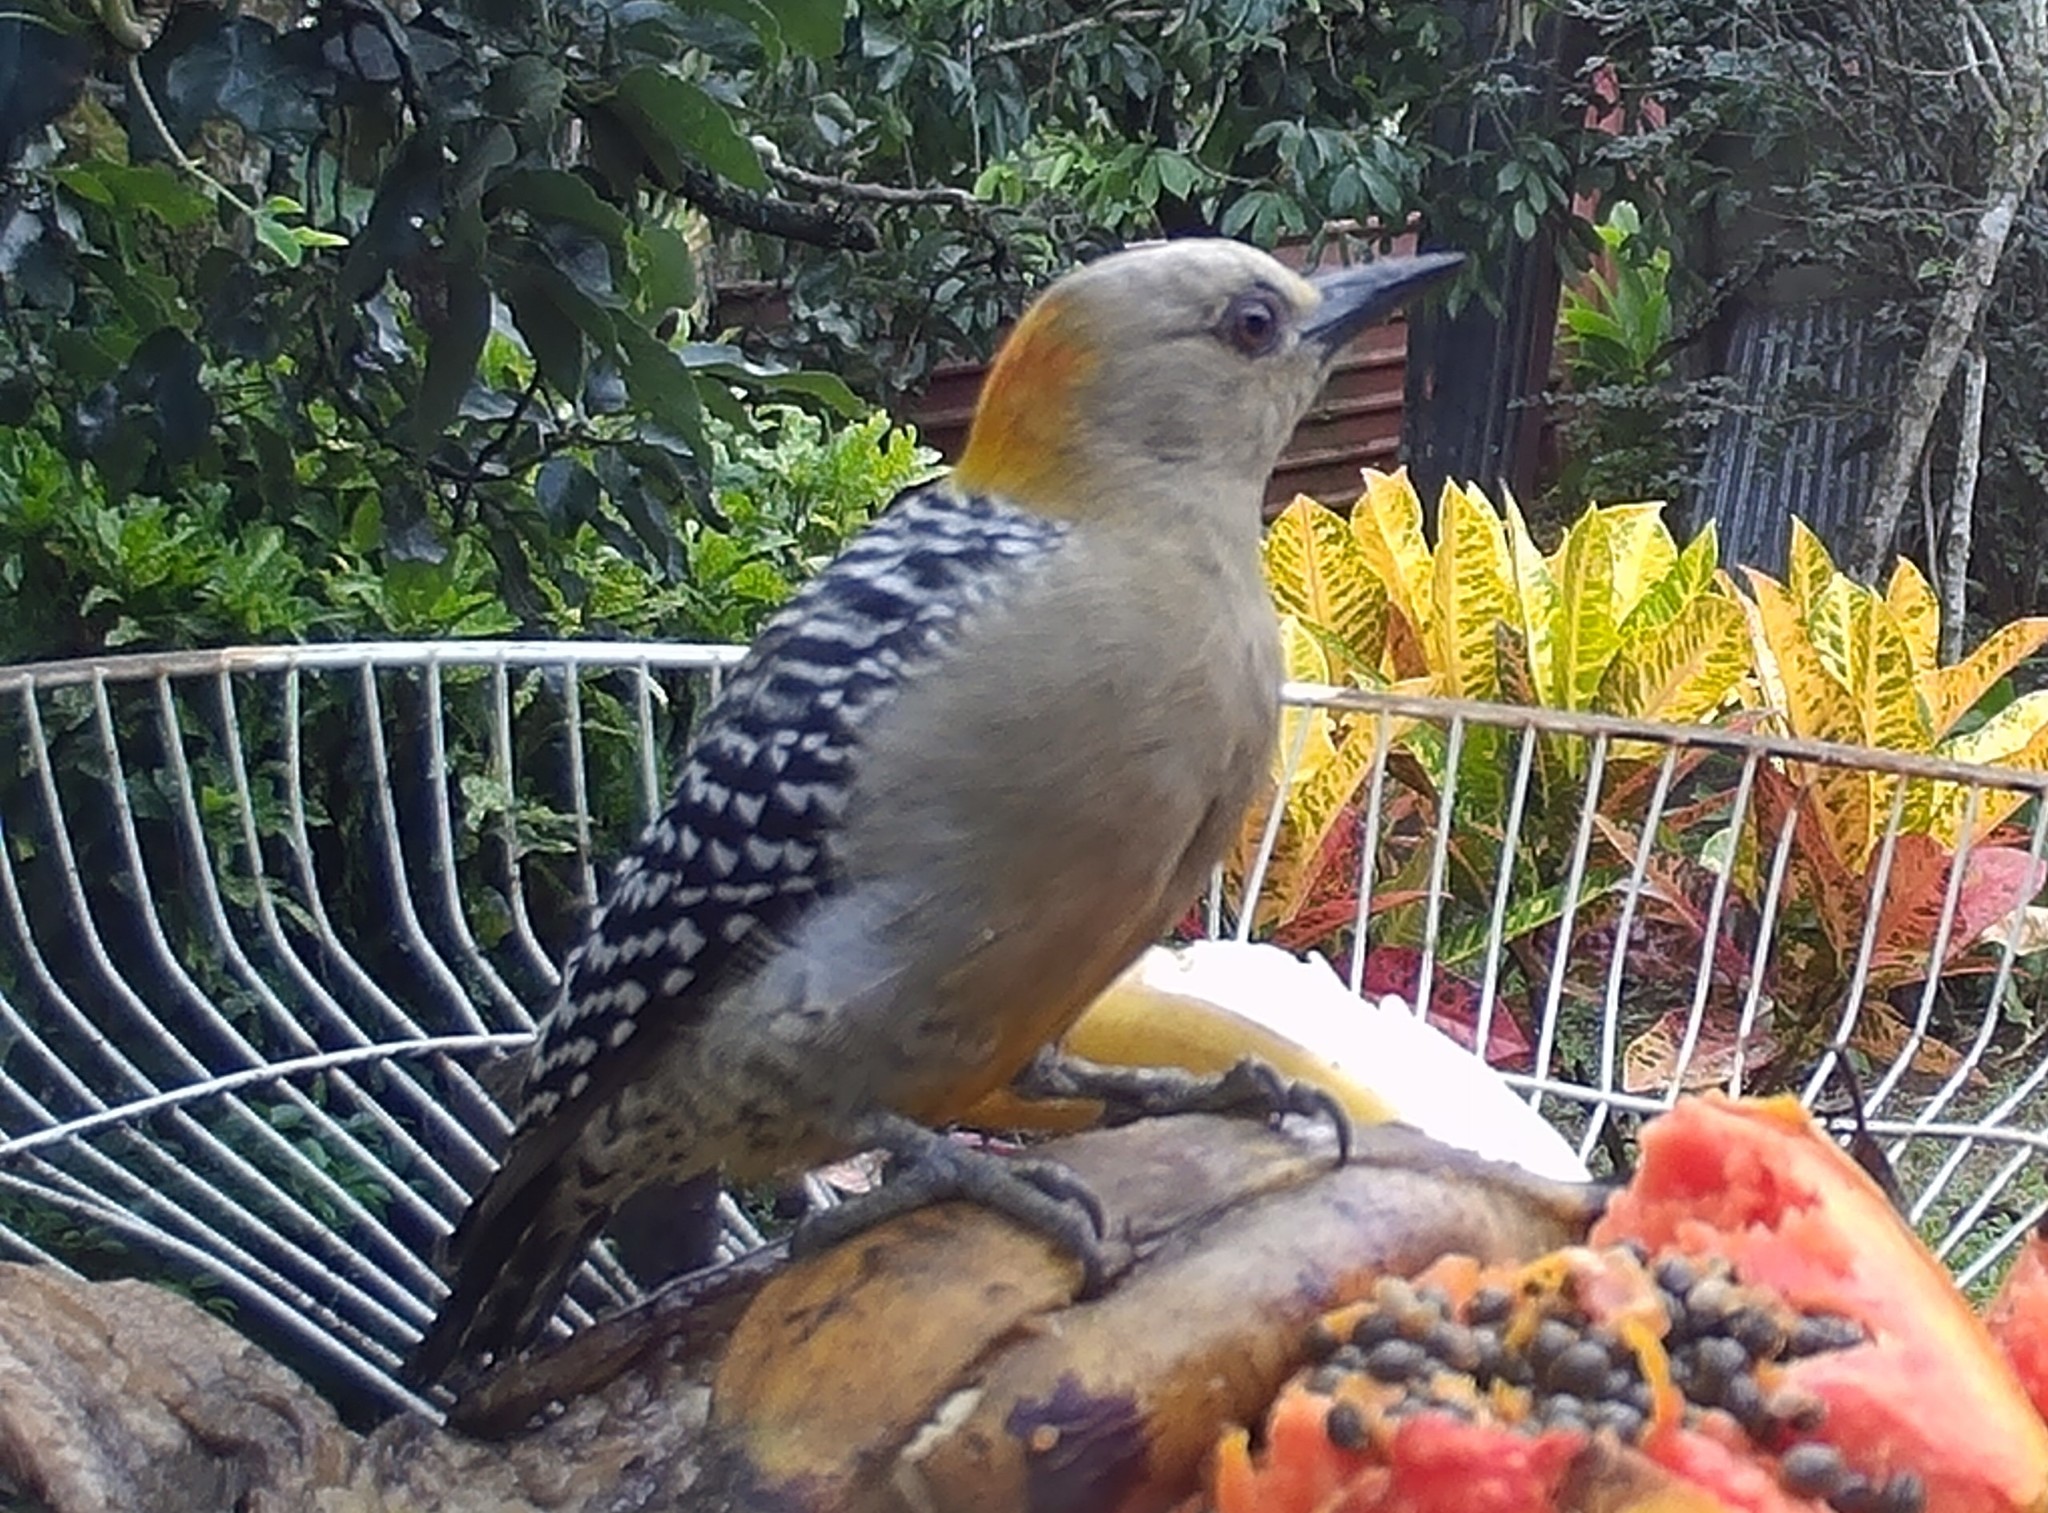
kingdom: Animalia
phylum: Chordata
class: Aves
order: Piciformes
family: Picidae
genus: Melanerpes
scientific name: Melanerpes hoffmannii
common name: Hoffmann's woodpecker
